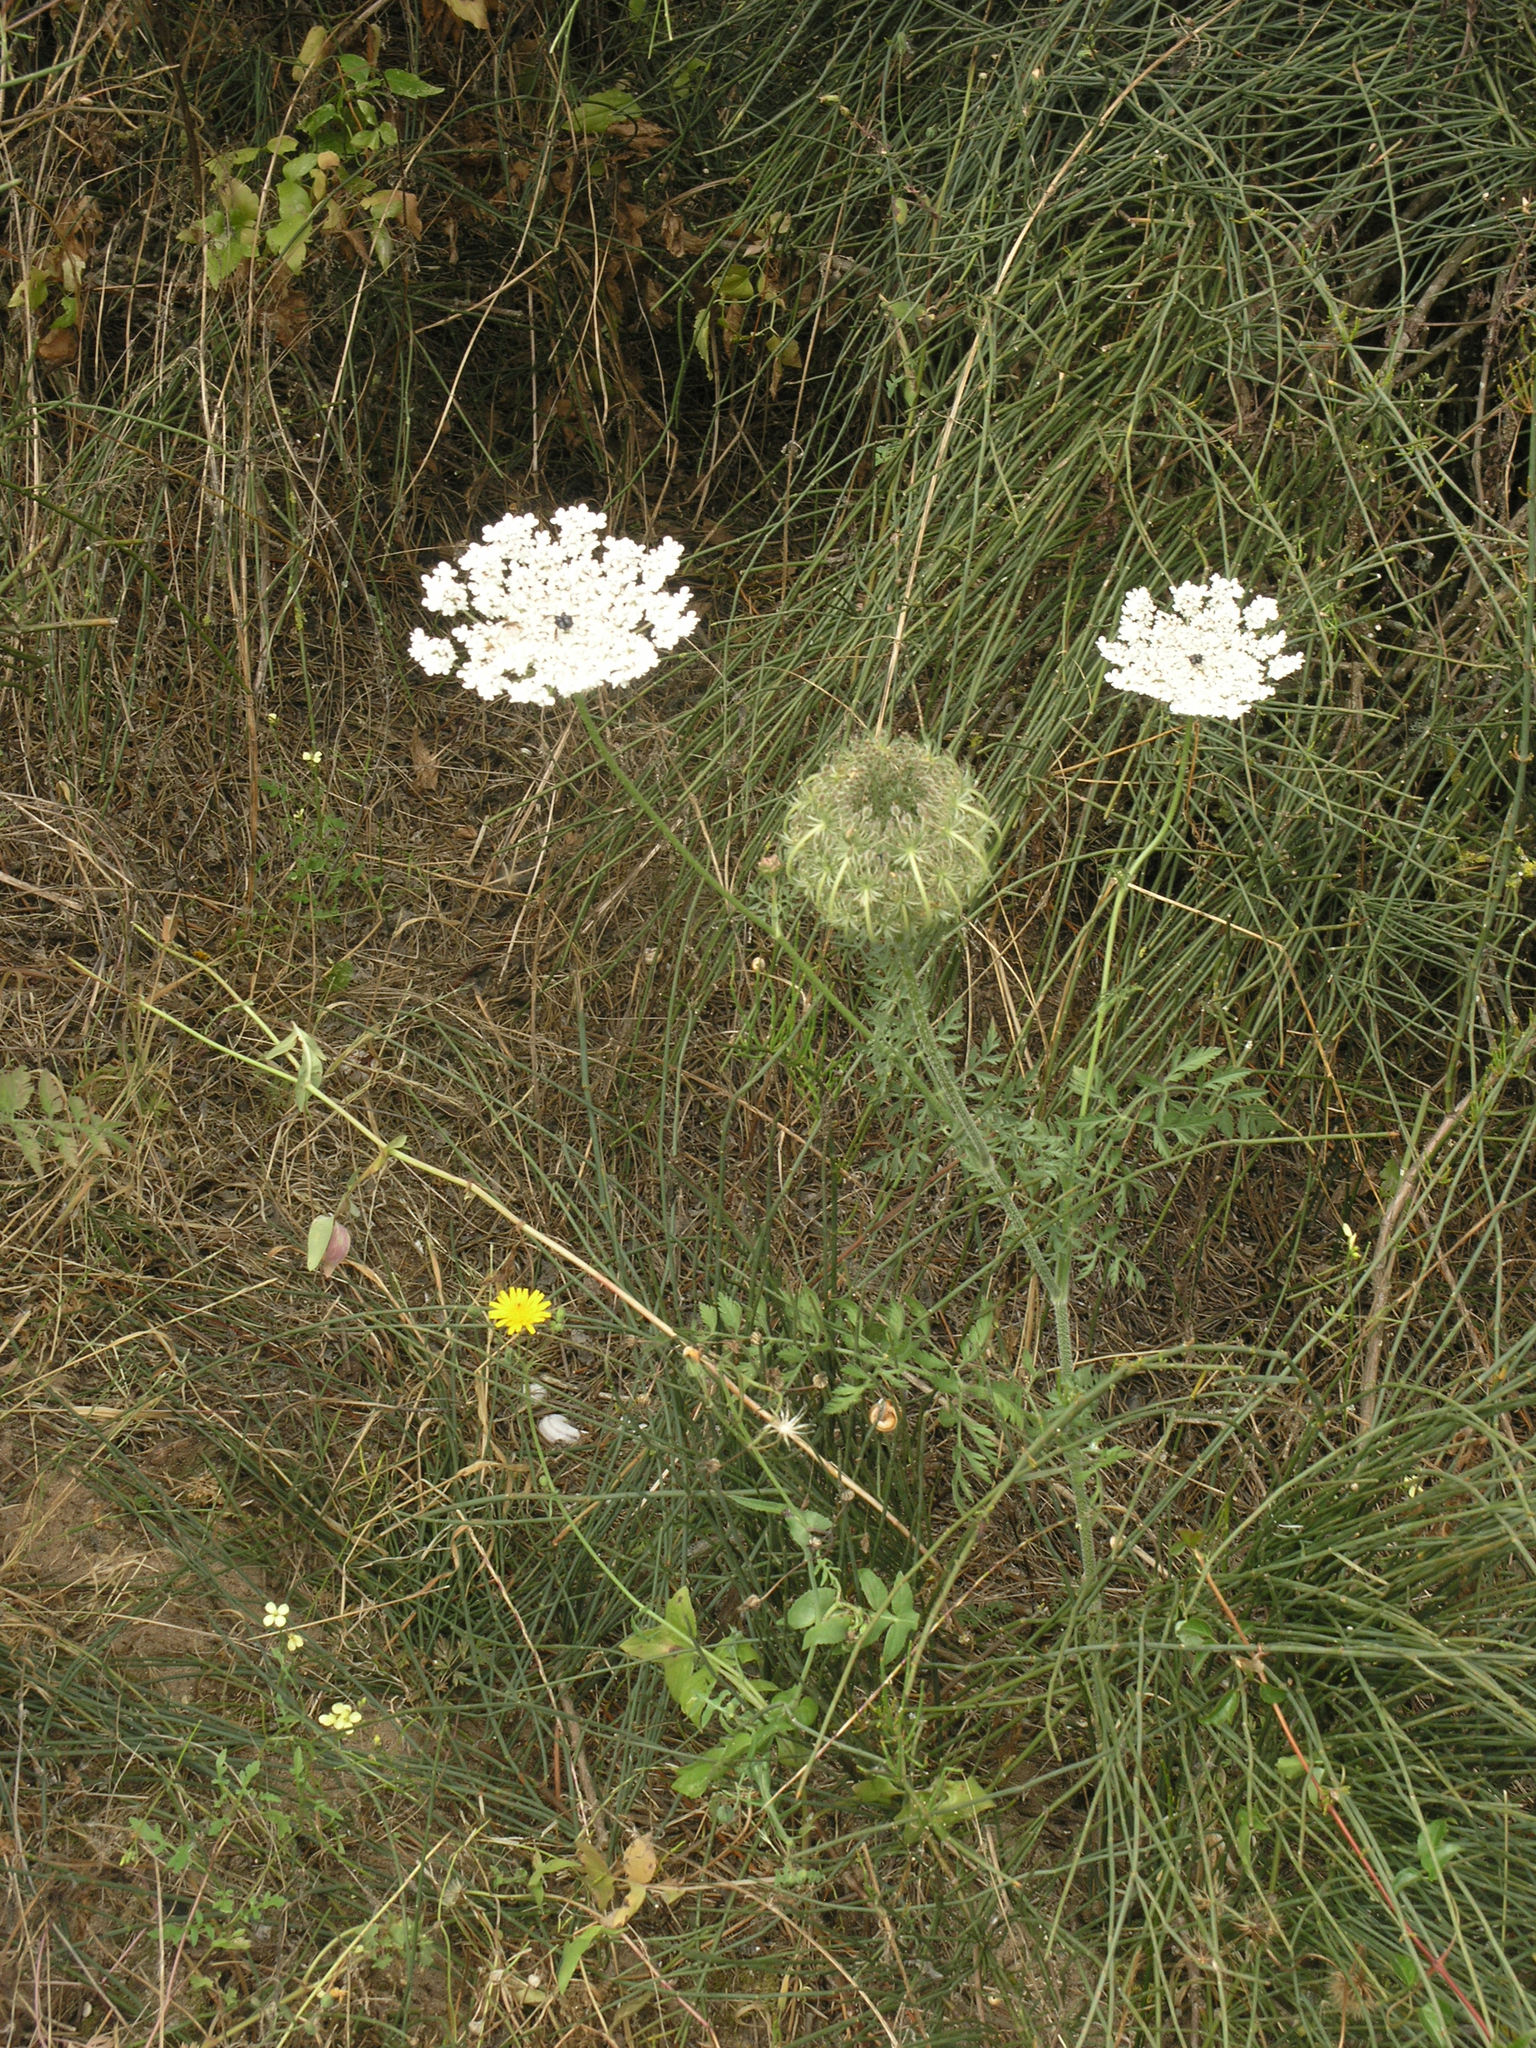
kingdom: Plantae
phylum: Tracheophyta
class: Magnoliopsida
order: Apiales
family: Apiaceae
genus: Daucus
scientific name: Daucus carota
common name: Wild carrot
